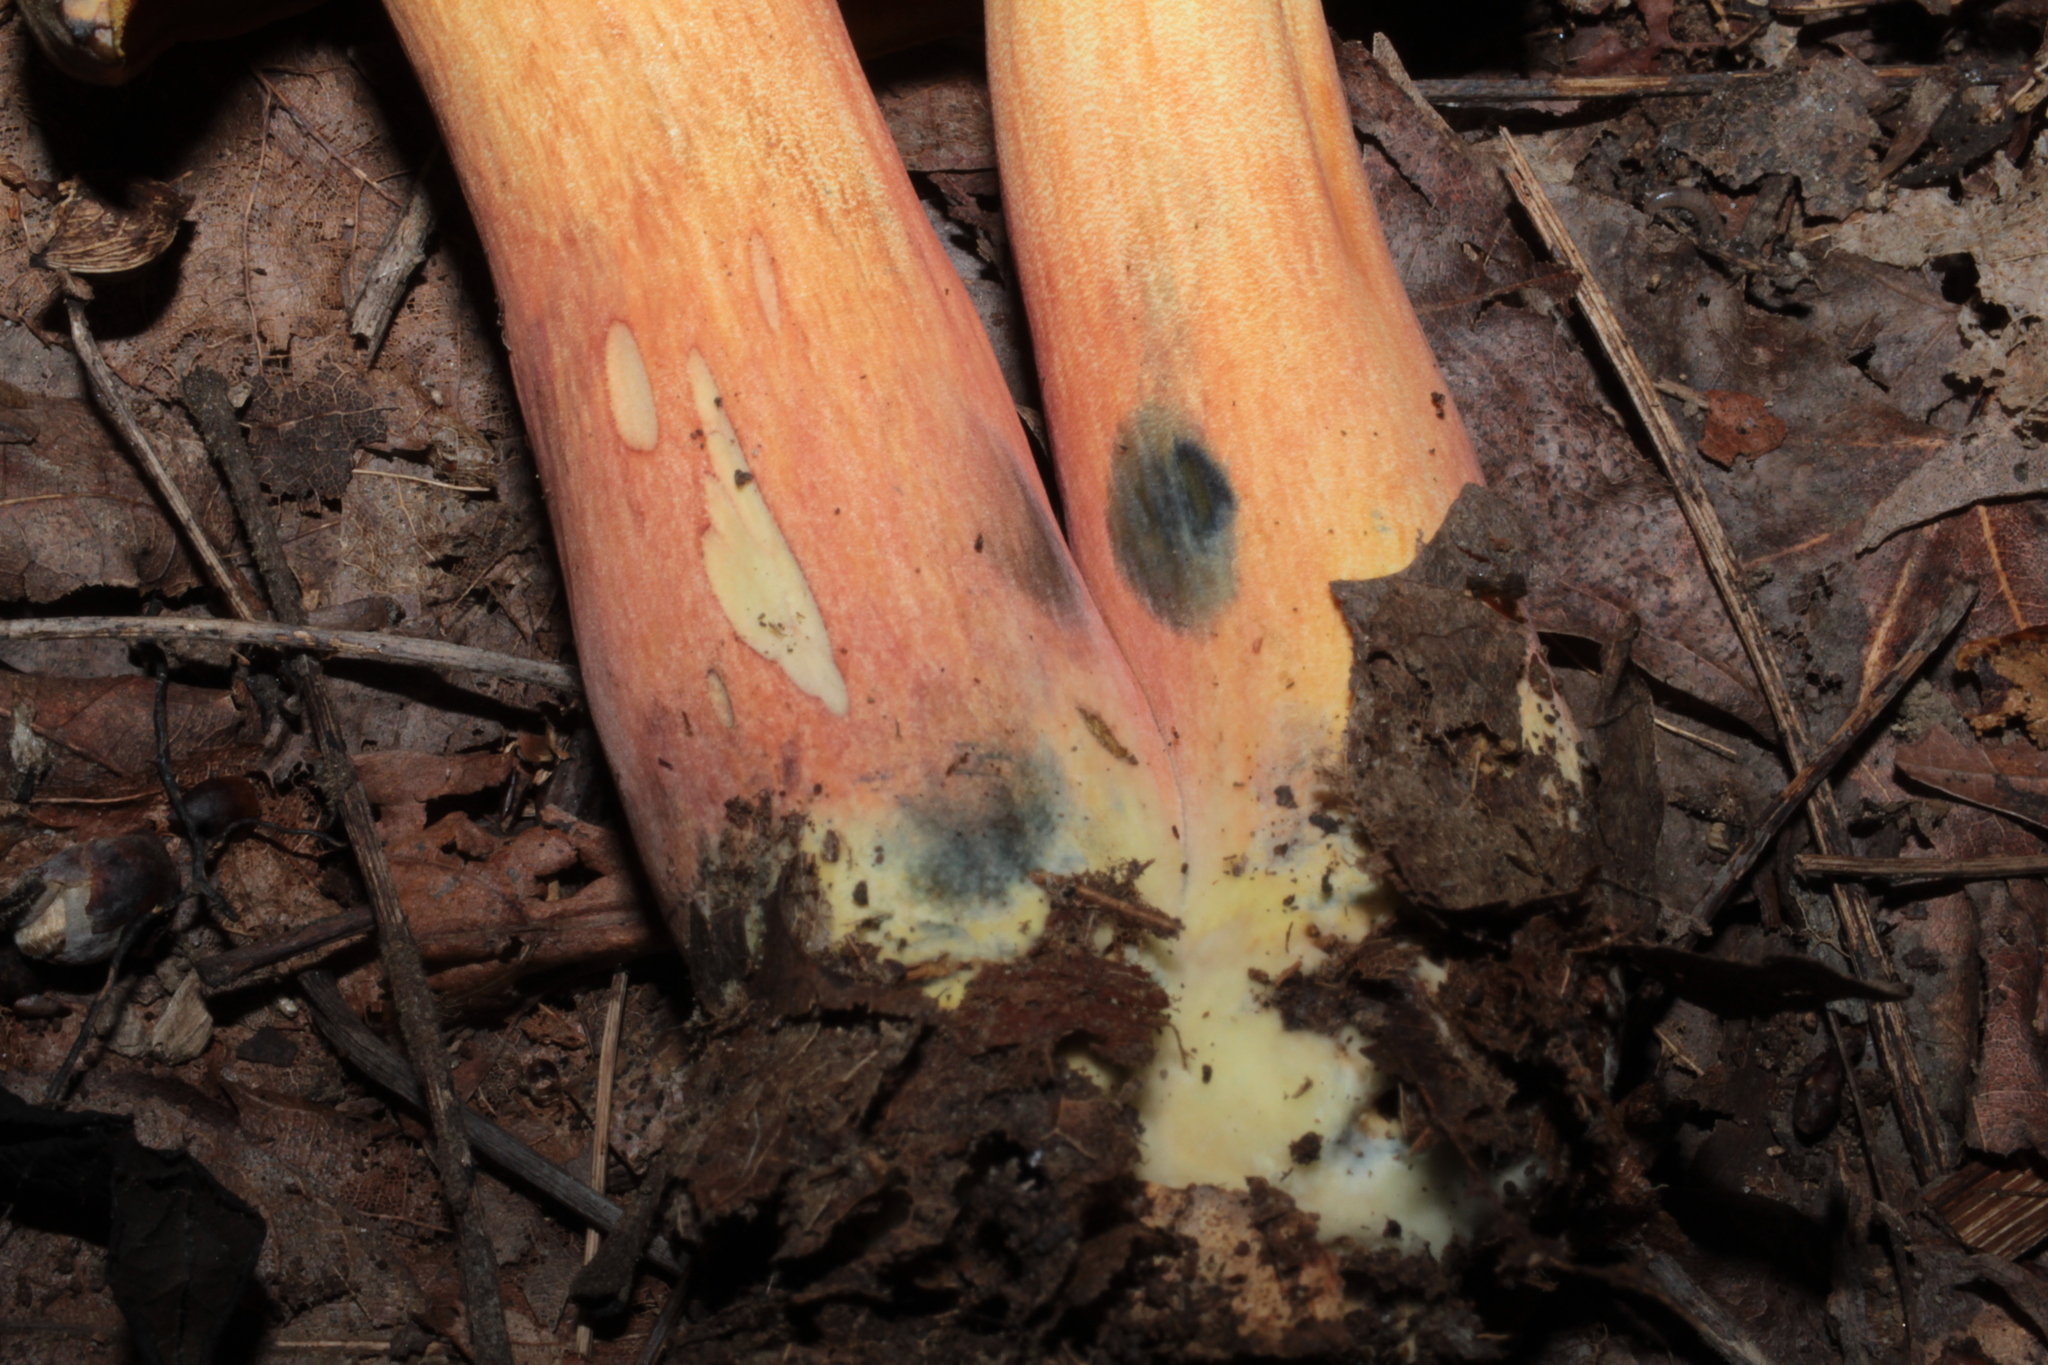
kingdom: Fungi
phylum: Basidiomycota
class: Agaricomycetes
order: Boletales
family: Boletaceae
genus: Boletus
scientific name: Boletus subvelutipes
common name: Red-mouth bolete
